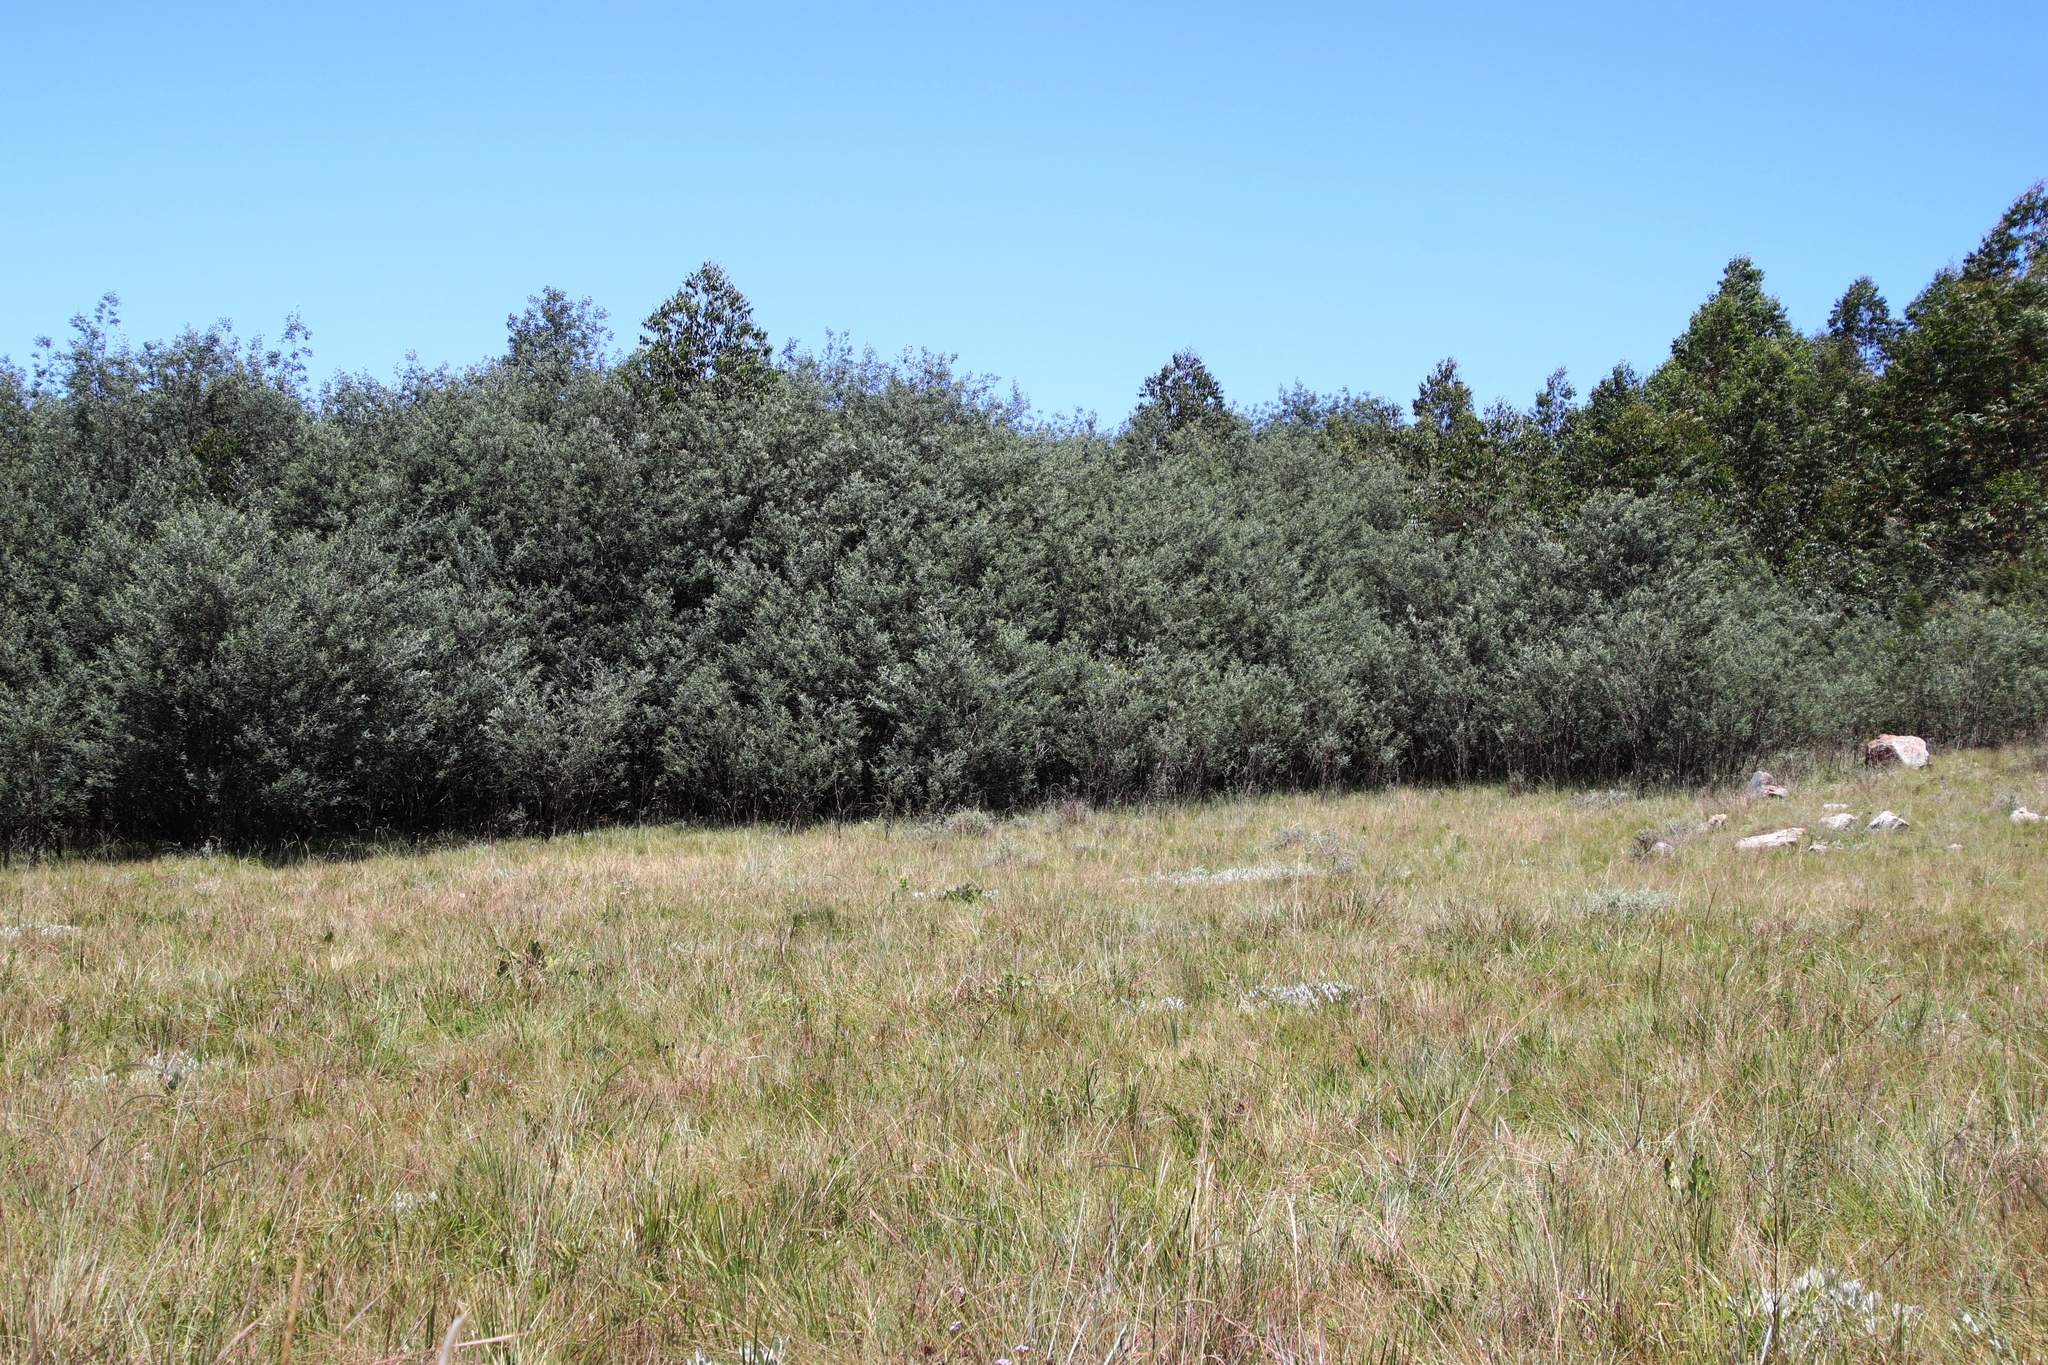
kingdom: Plantae
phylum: Tracheophyta
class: Magnoliopsida
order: Fabales
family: Fabaceae
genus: Acacia
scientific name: Acacia dealbata
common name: Silver wattle
